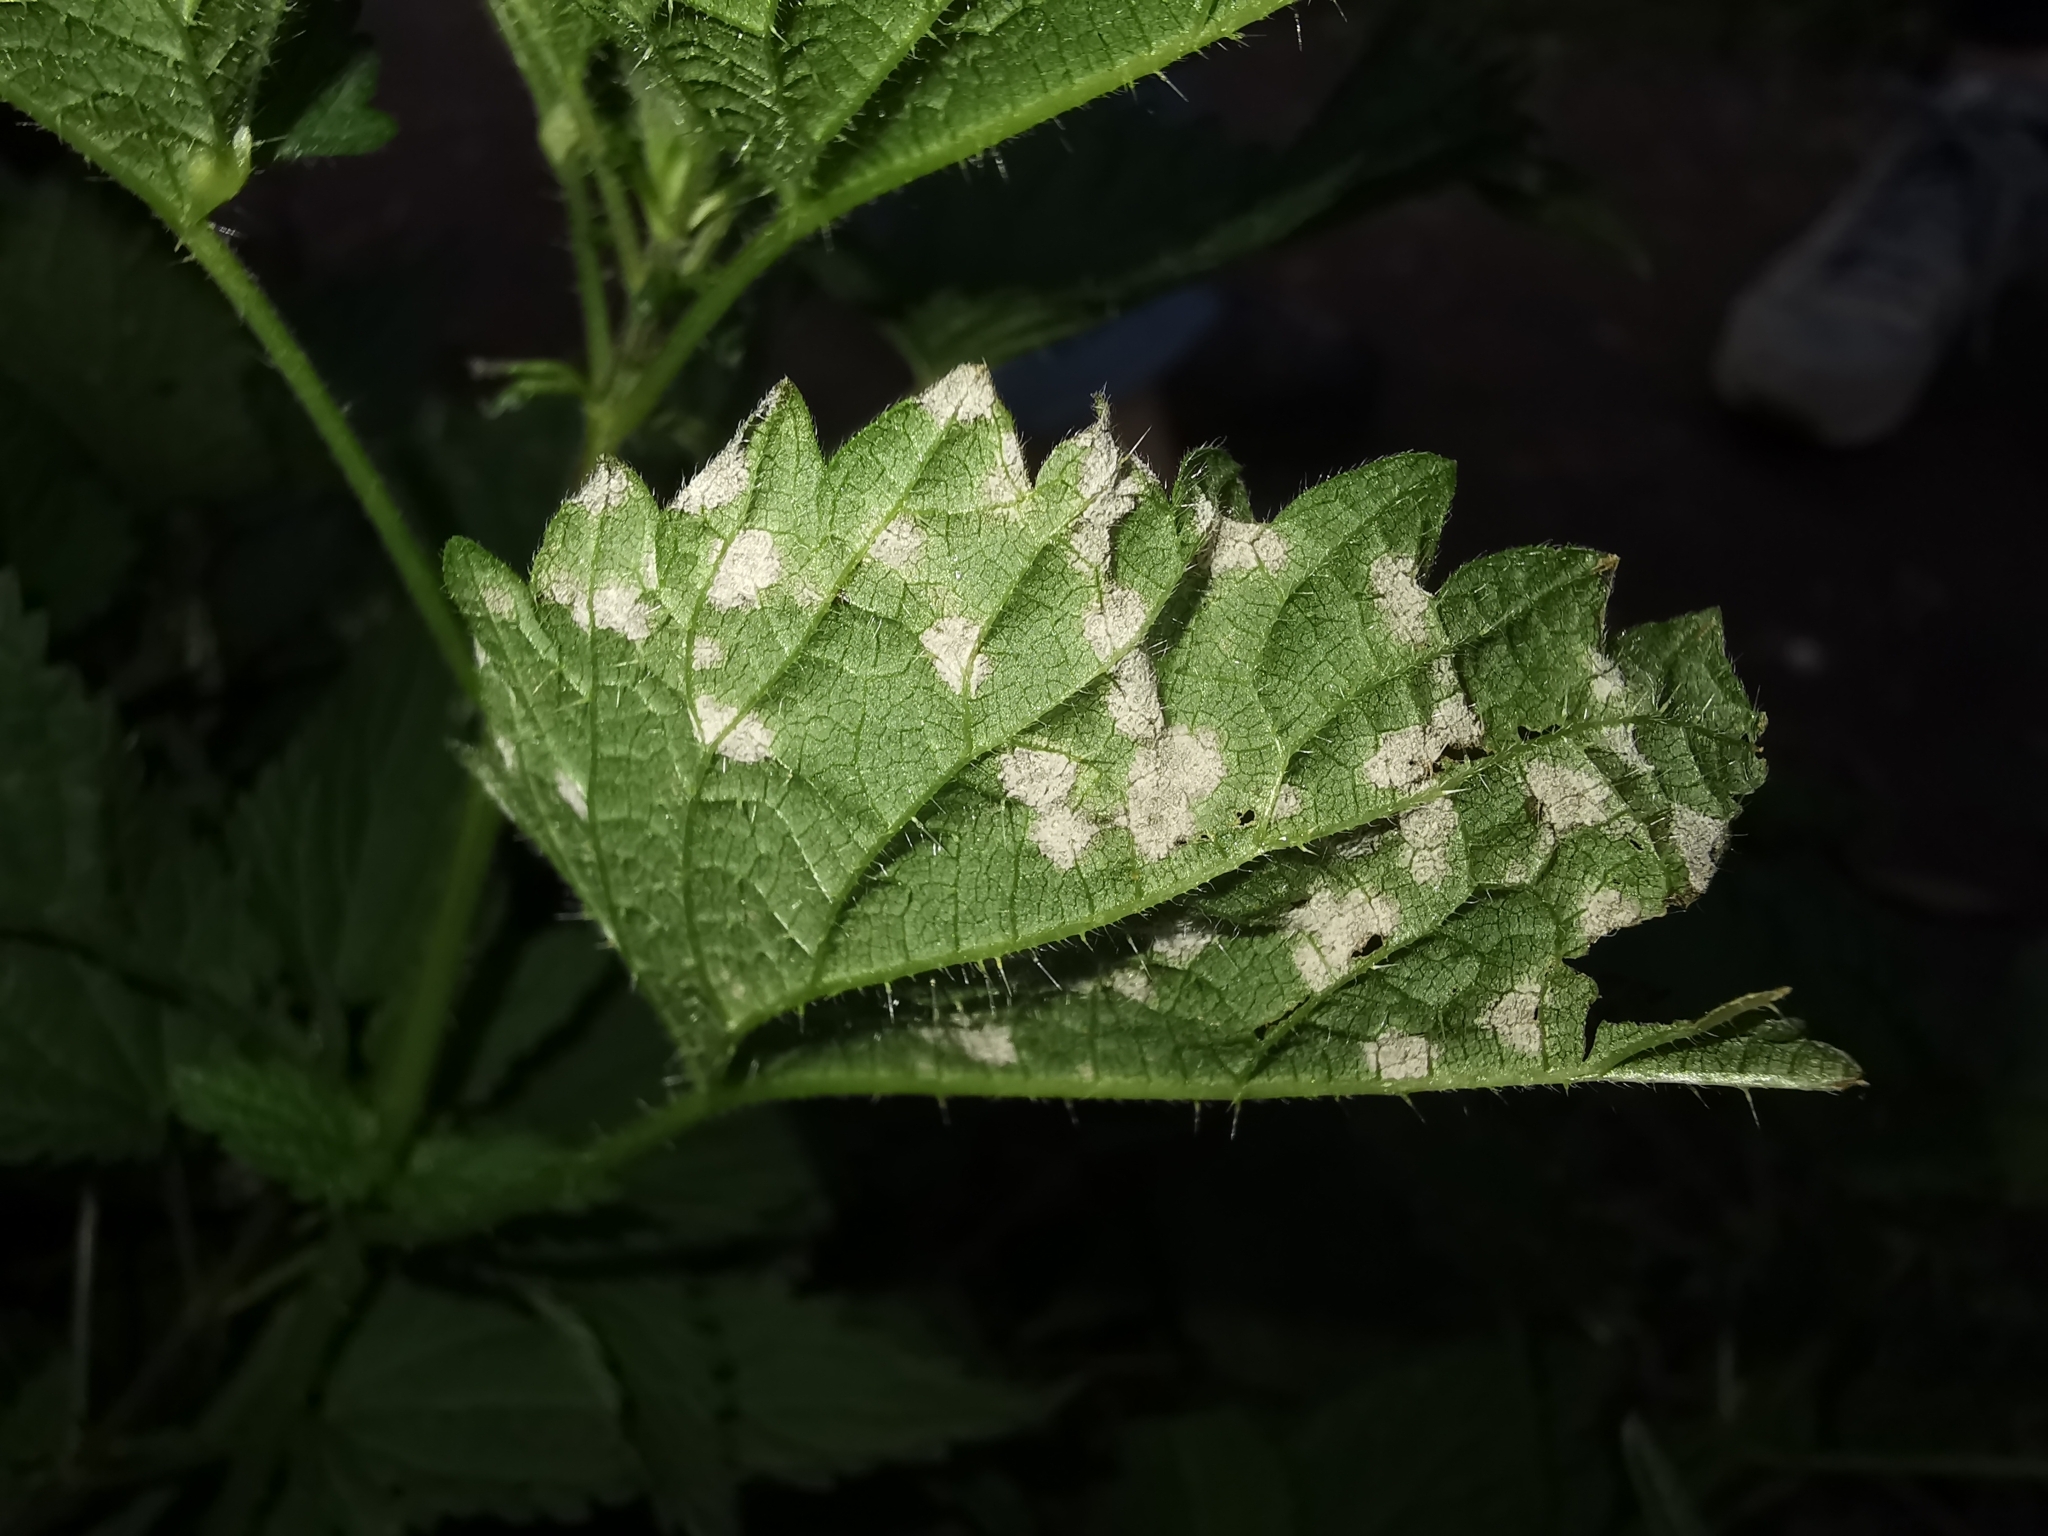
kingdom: Fungi
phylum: Ascomycota
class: Dothideomycetes
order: Mycosphaerellales
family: Mycosphaerellaceae
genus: Ramularia
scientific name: Ramularia urticae
